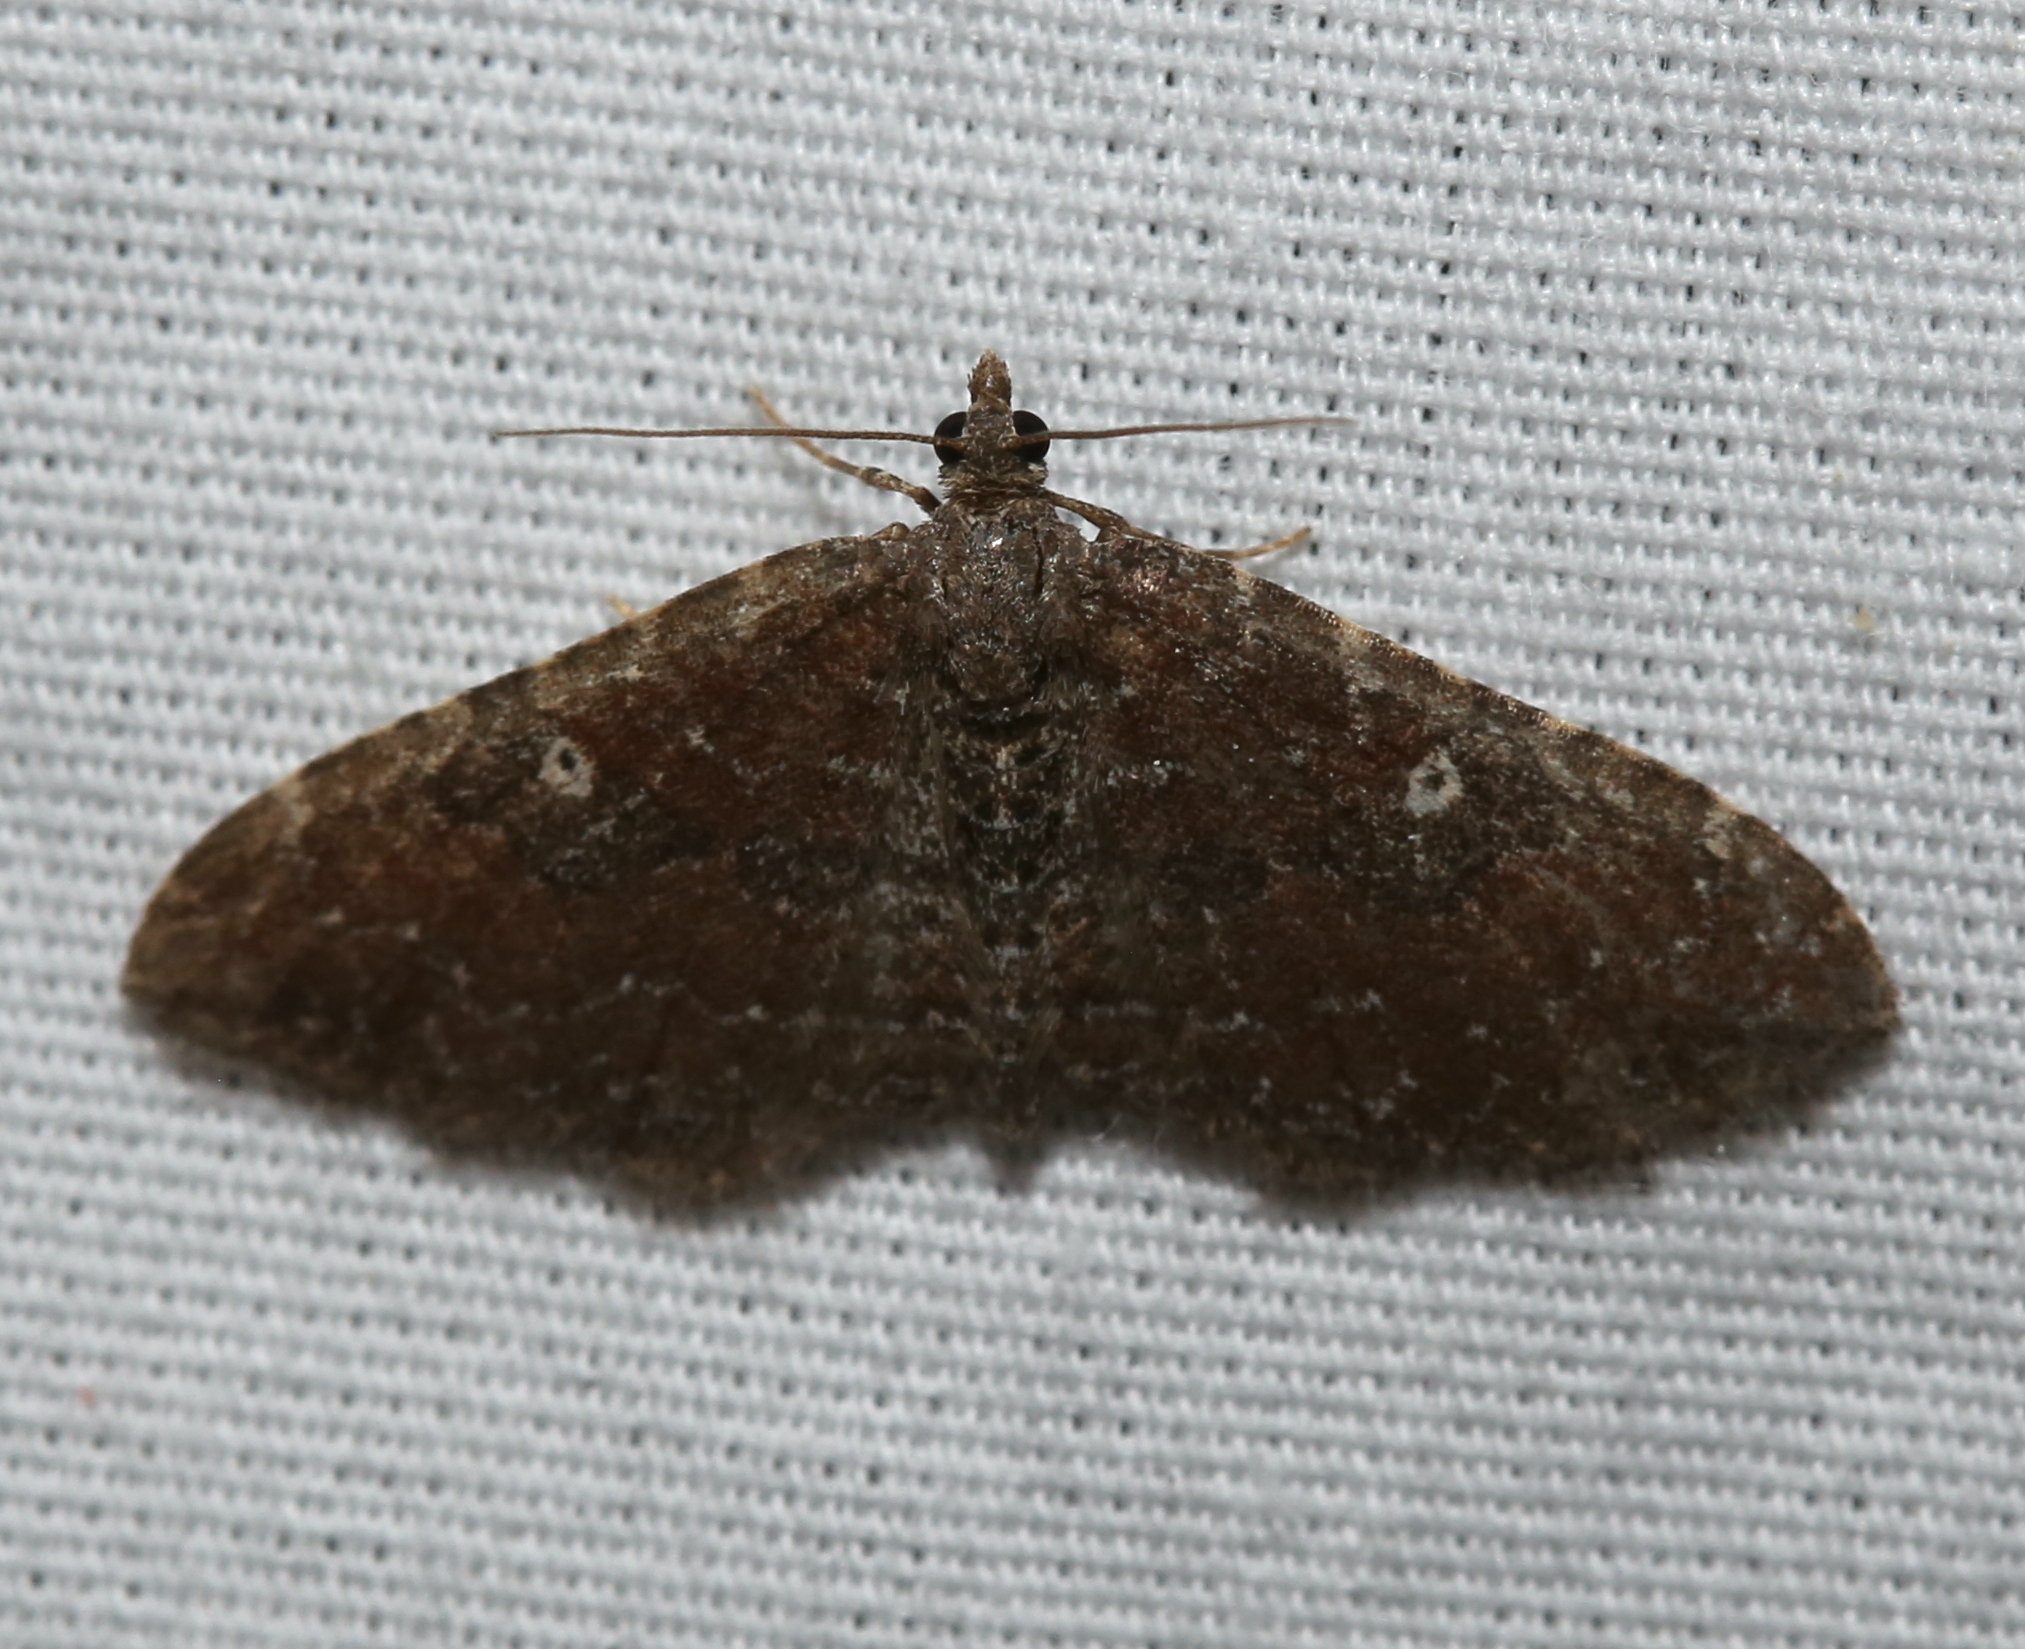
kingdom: Animalia
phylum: Arthropoda
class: Insecta
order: Lepidoptera
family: Geometridae
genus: Orthonama
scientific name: Orthonama obstipata
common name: The gem
